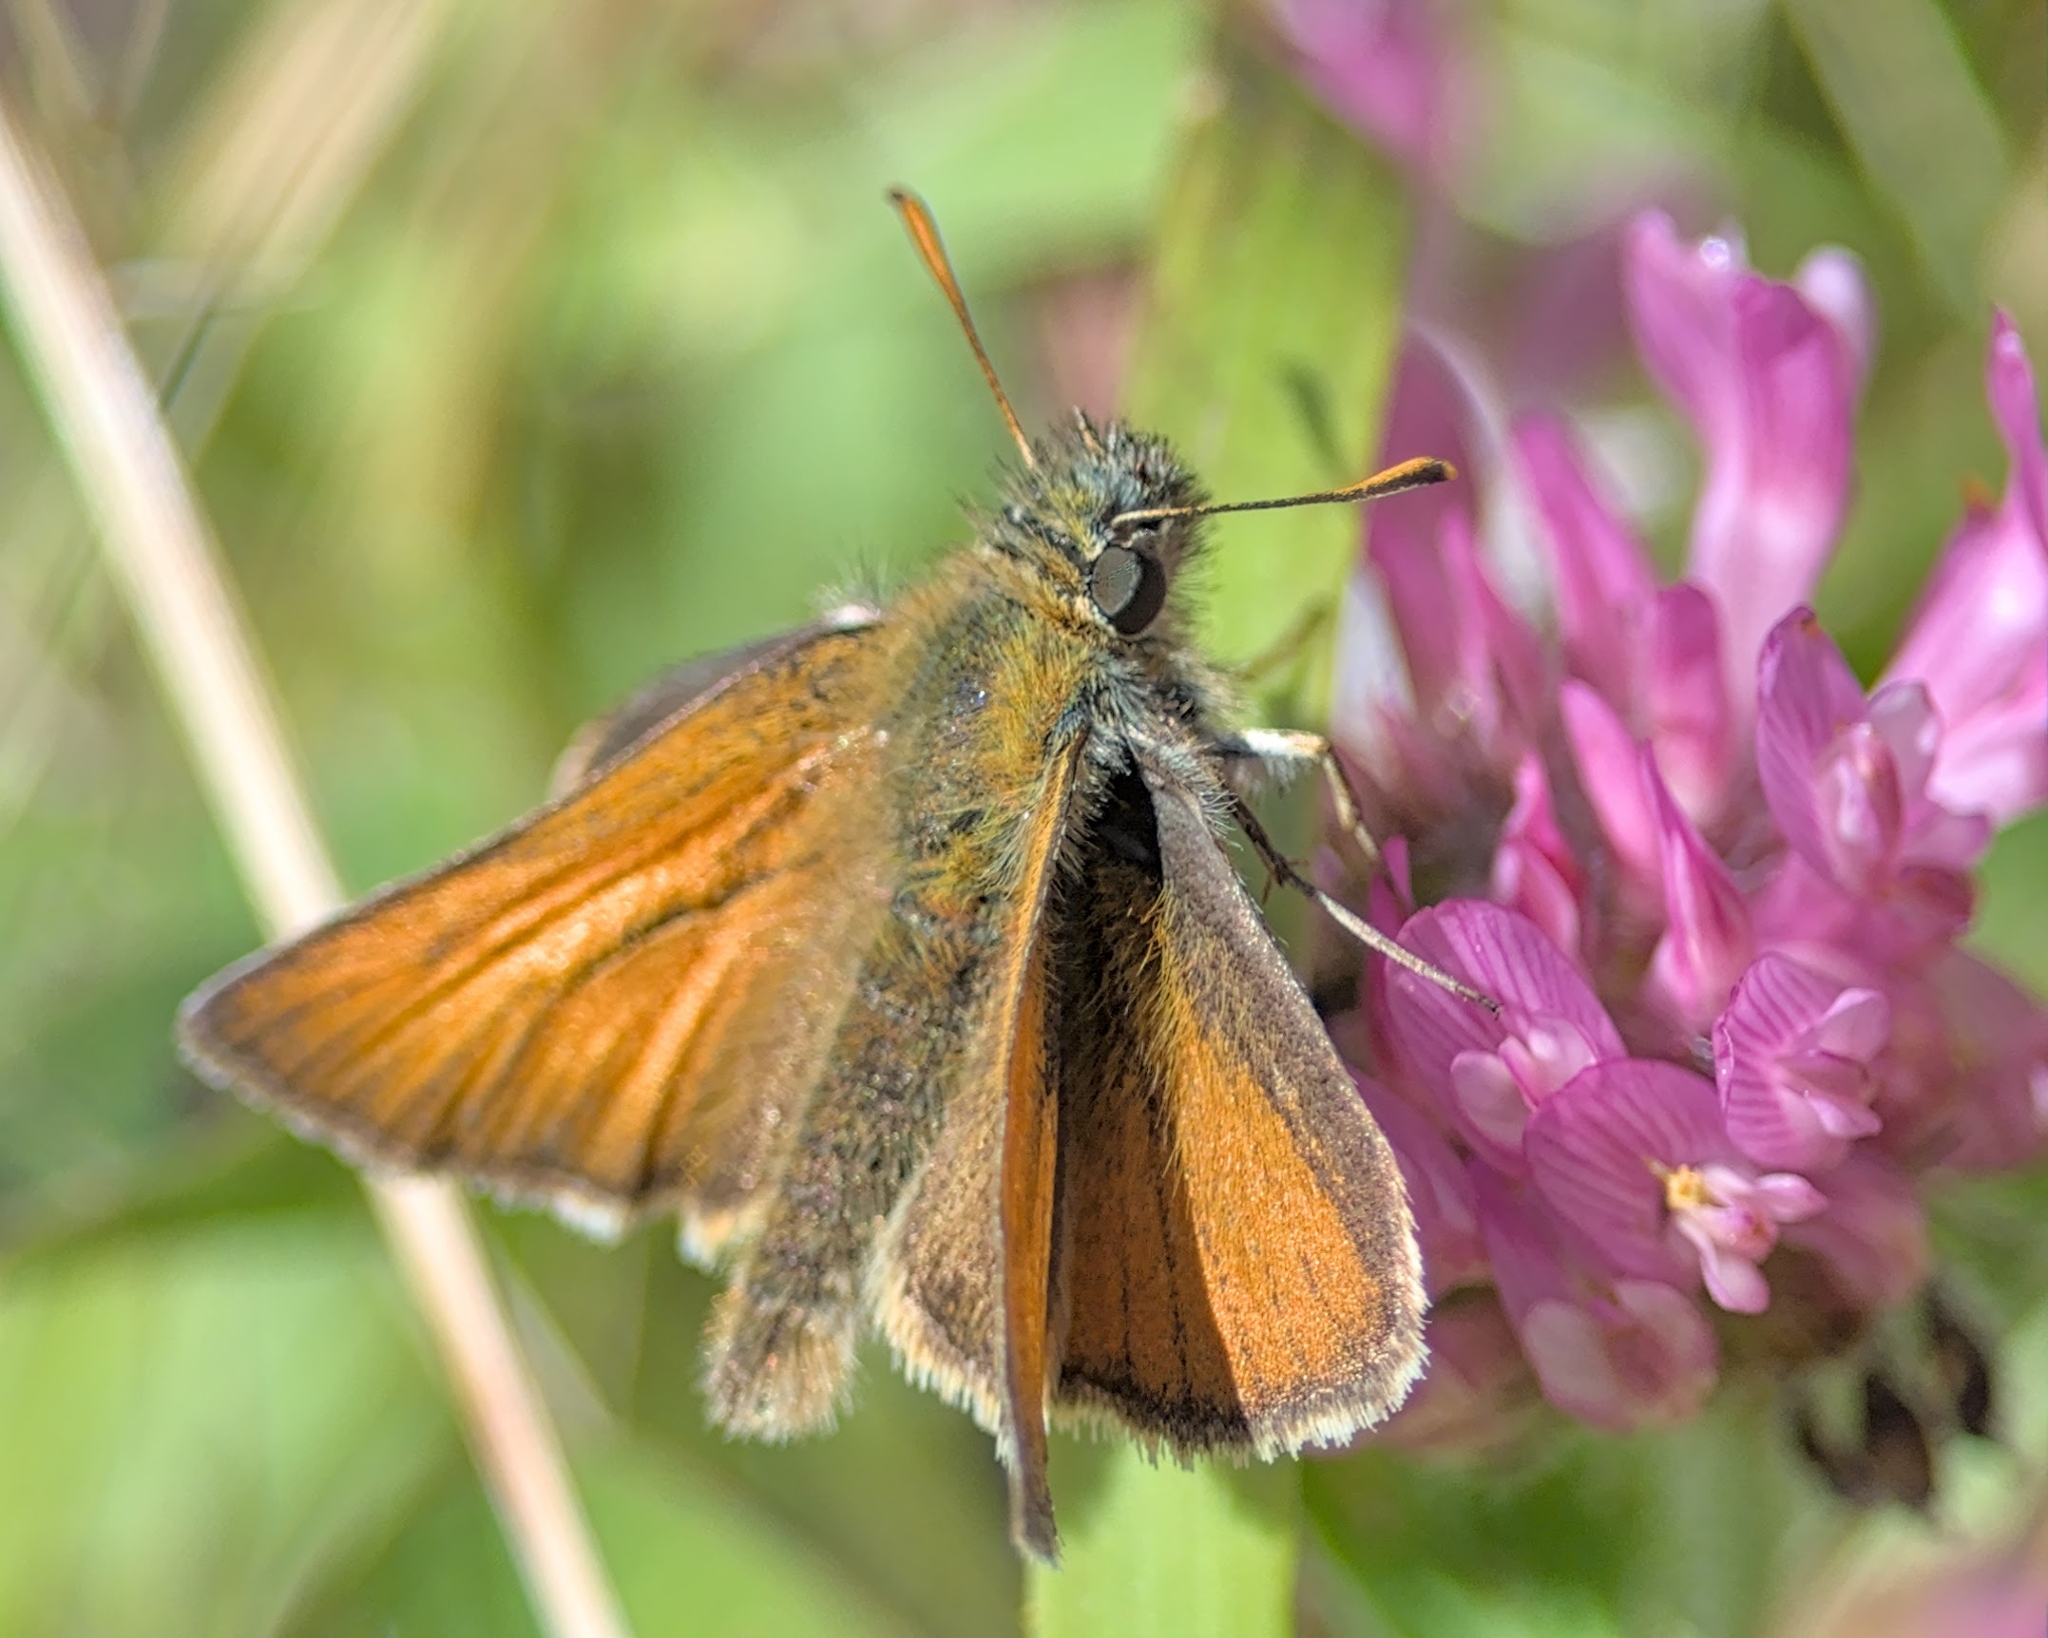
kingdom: Animalia
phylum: Arthropoda
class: Insecta
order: Lepidoptera
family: Hesperiidae
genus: Thymelicus
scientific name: Thymelicus sylvestris
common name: Small skipper
